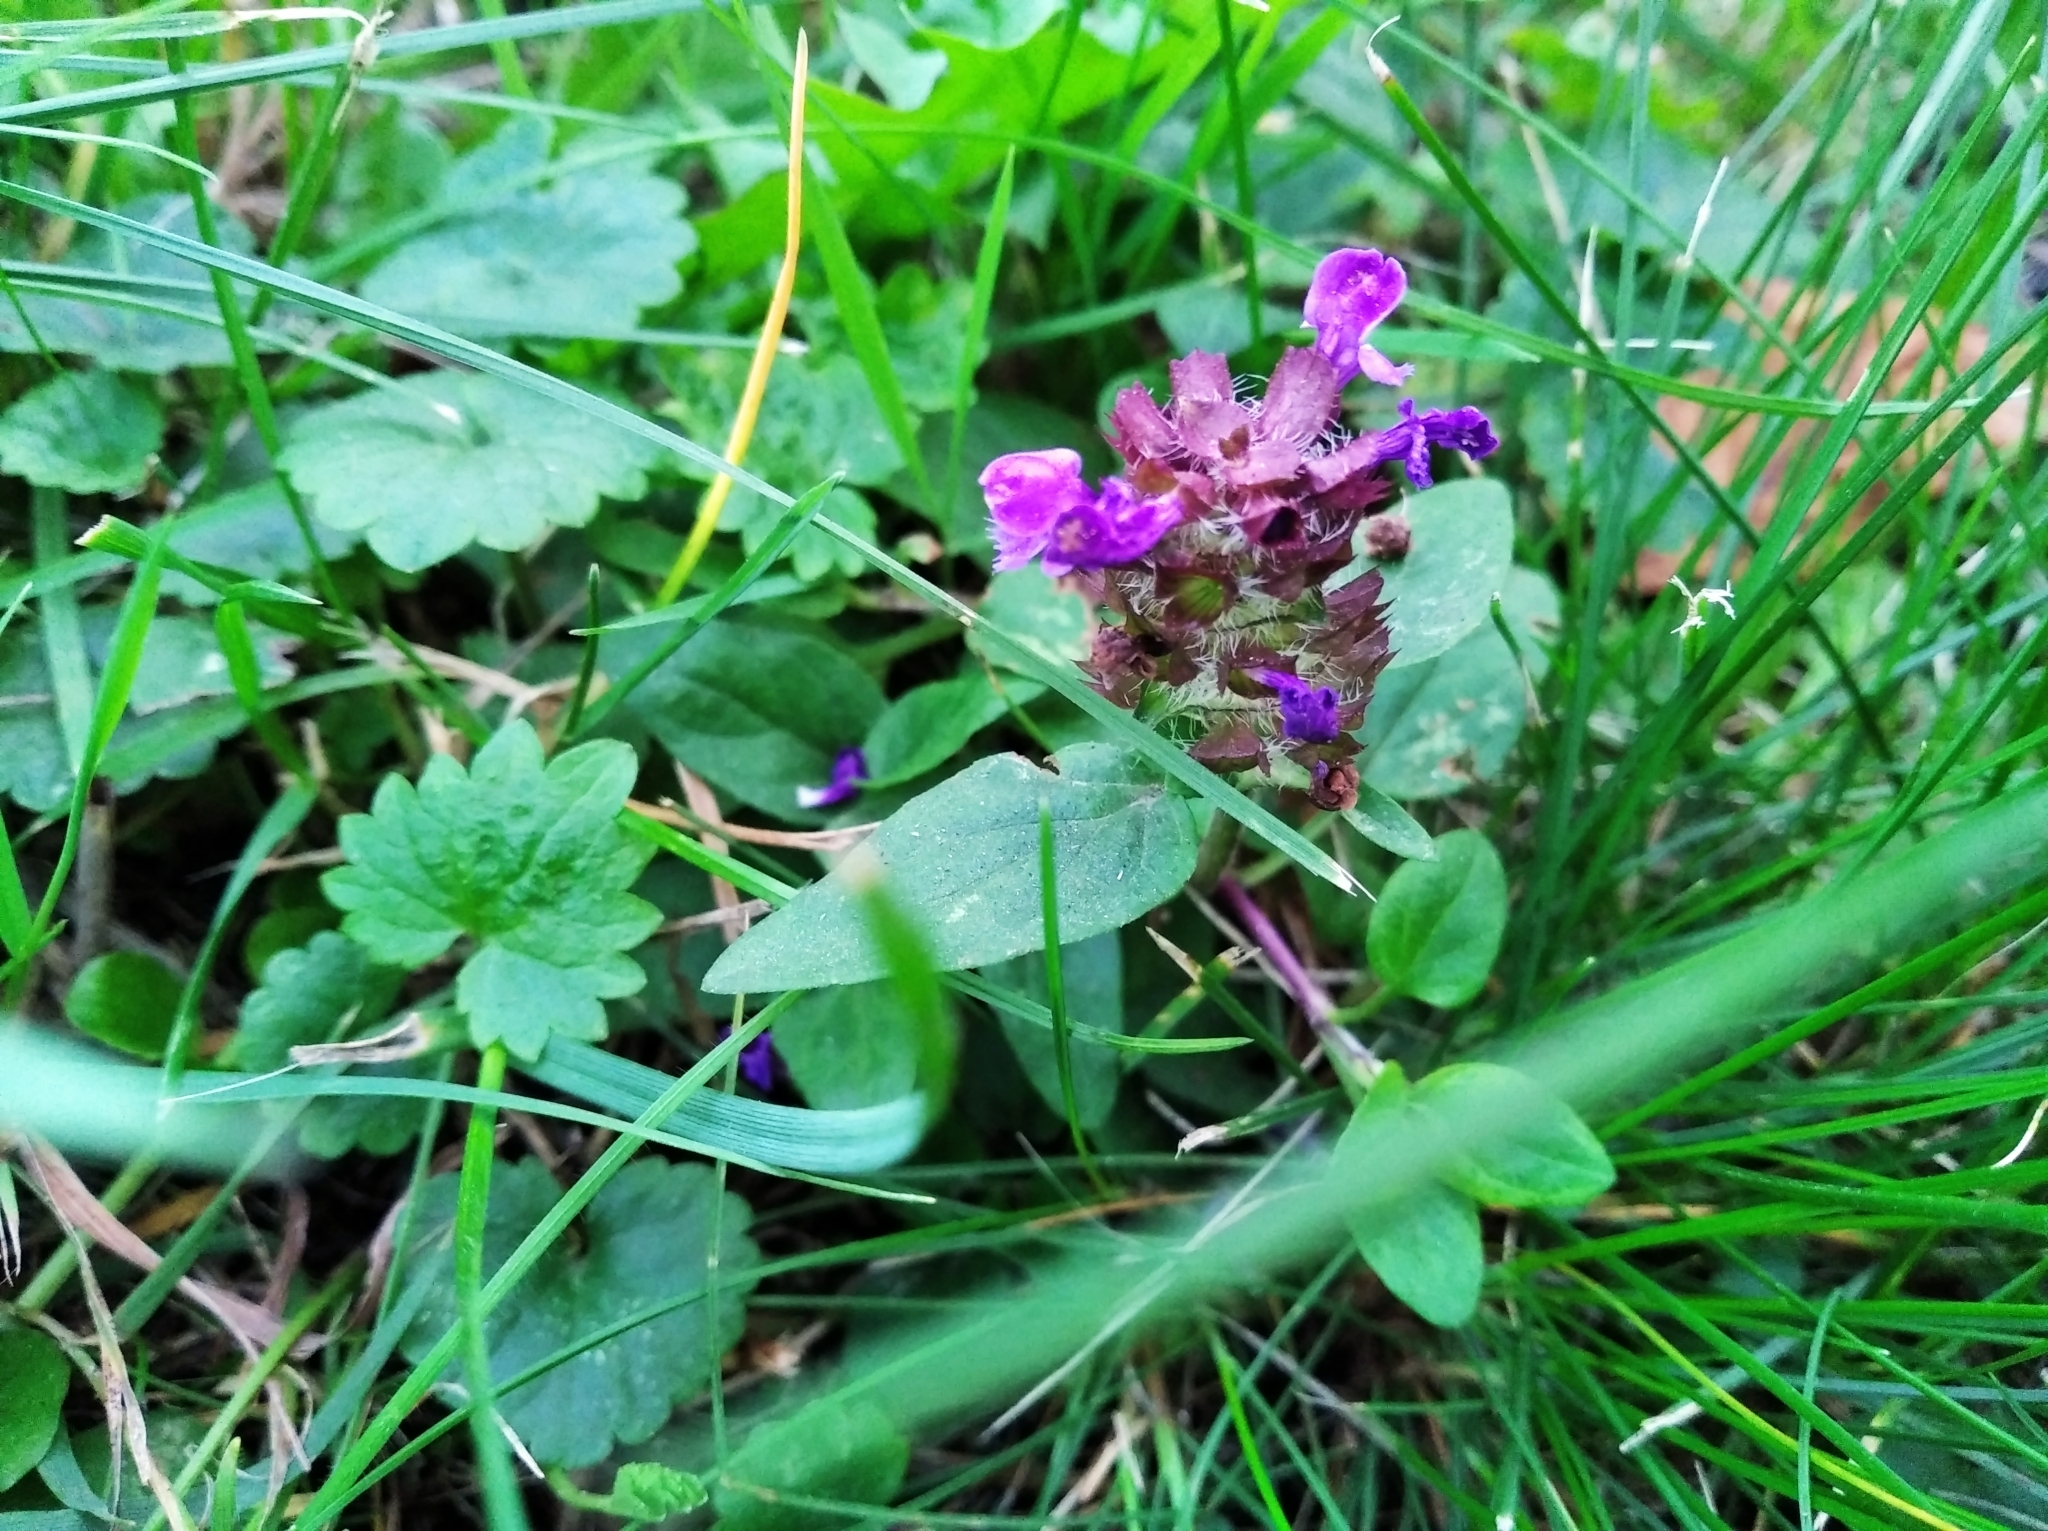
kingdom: Plantae
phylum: Tracheophyta
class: Magnoliopsida
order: Lamiales
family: Lamiaceae
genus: Prunella
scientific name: Prunella vulgaris
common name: Heal-all
